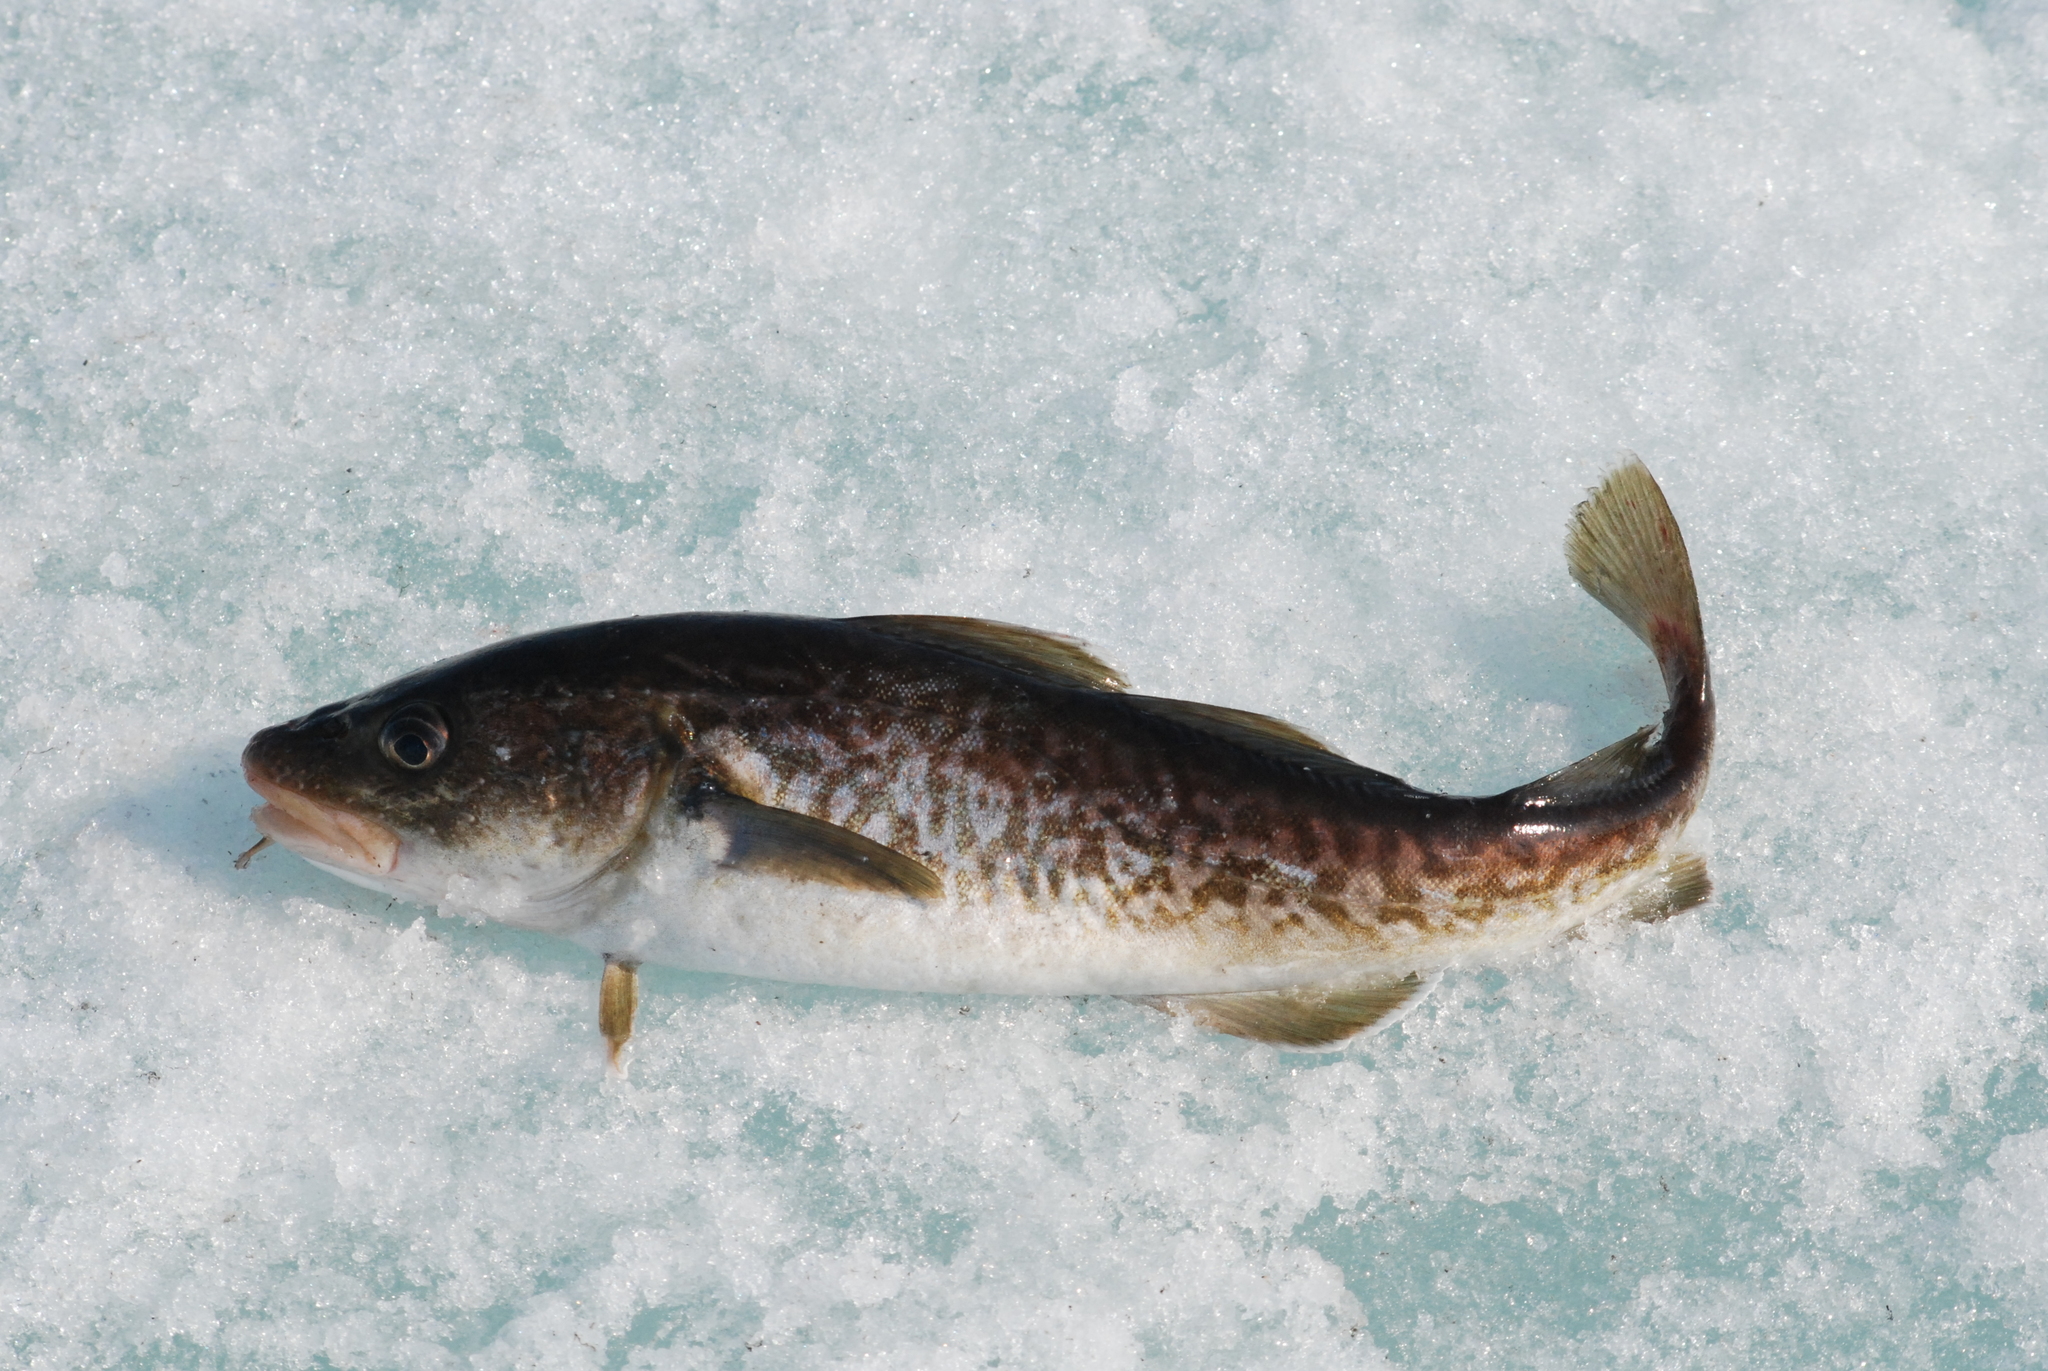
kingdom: Animalia
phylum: Chordata
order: Gadiformes
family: Gadidae
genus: Gadus
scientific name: Gadus macrocephalus
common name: Pacific cod
